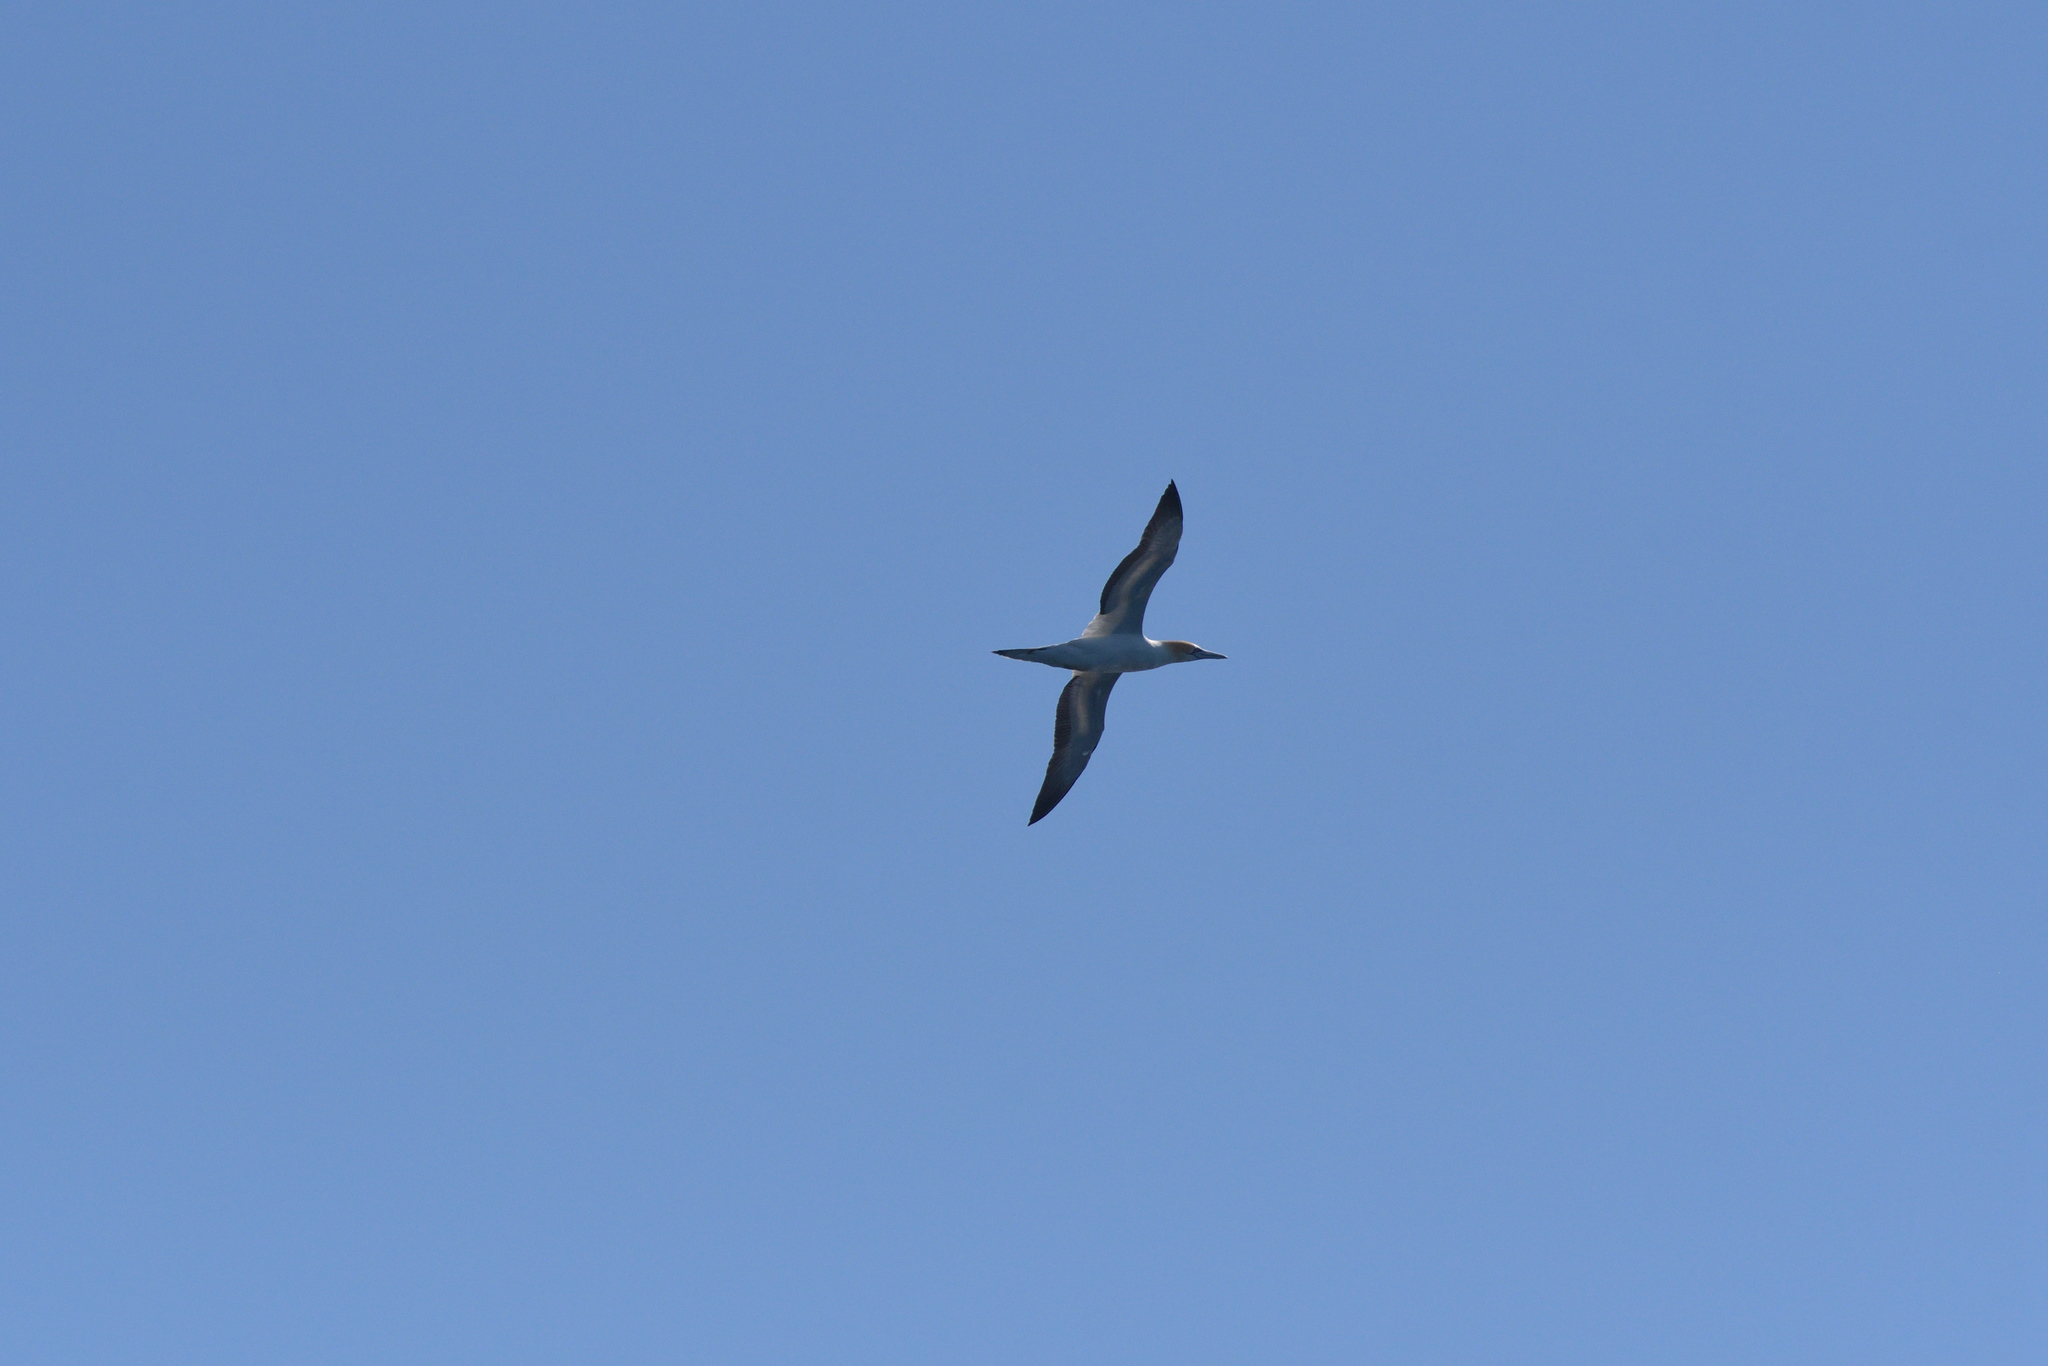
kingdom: Animalia
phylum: Chordata
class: Aves
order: Suliformes
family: Sulidae
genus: Morus
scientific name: Morus serrator
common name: Australasian gannet
